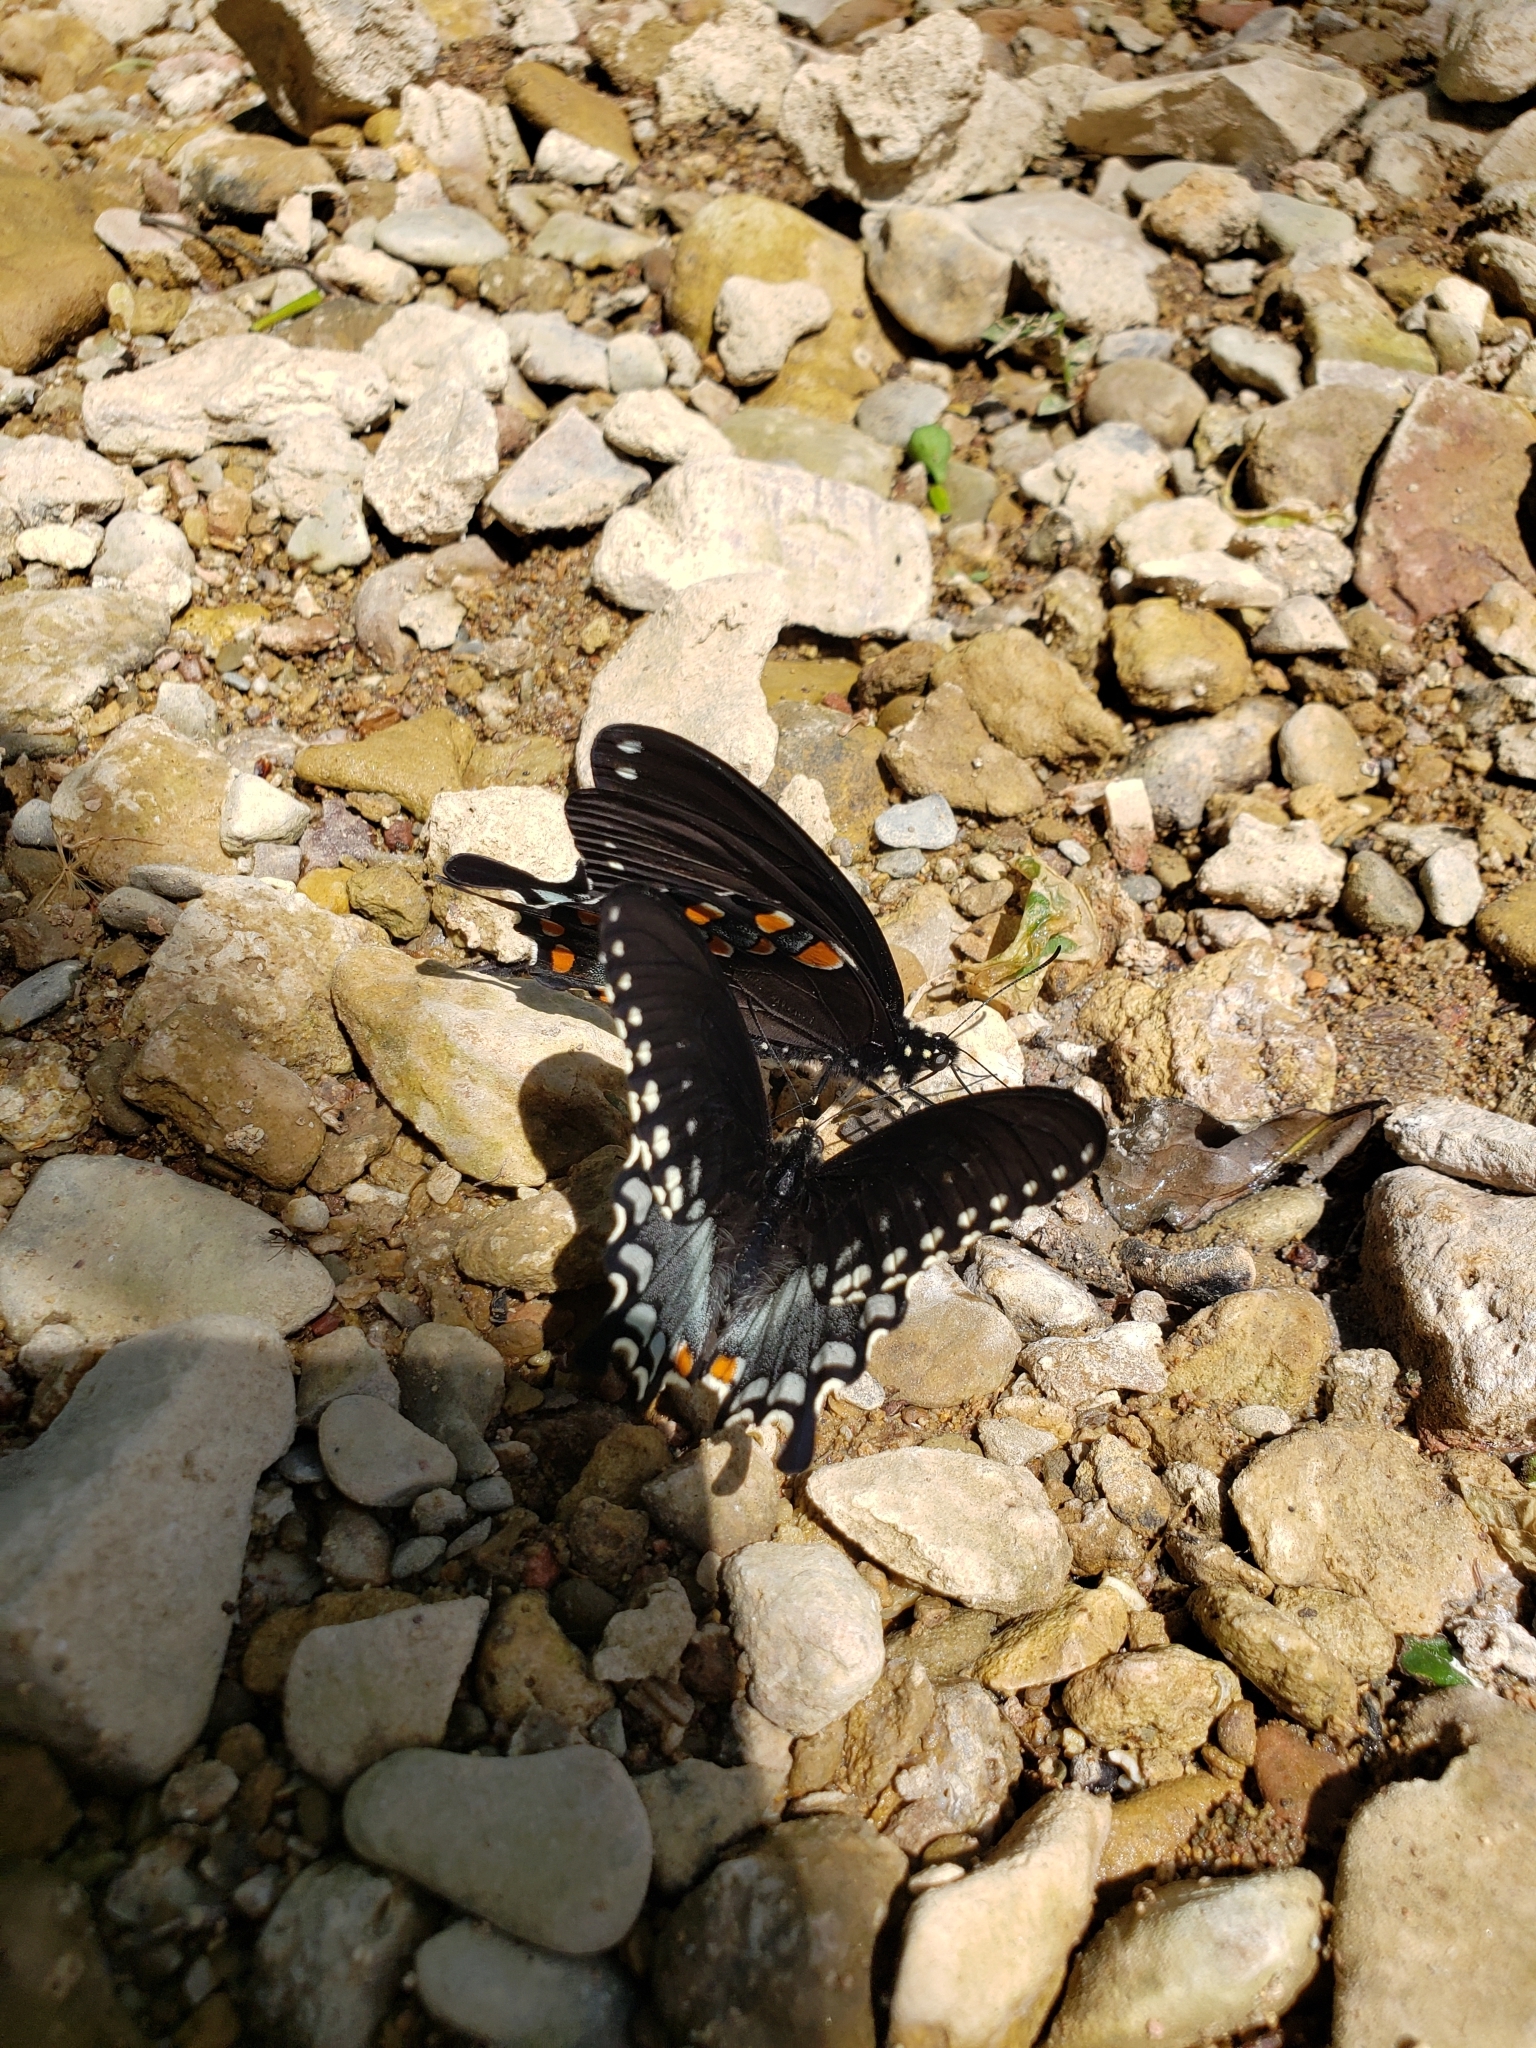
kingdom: Animalia
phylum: Arthropoda
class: Insecta
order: Lepidoptera
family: Papilionidae
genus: Papilio
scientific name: Papilio troilus
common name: Spicebush swallowtail
